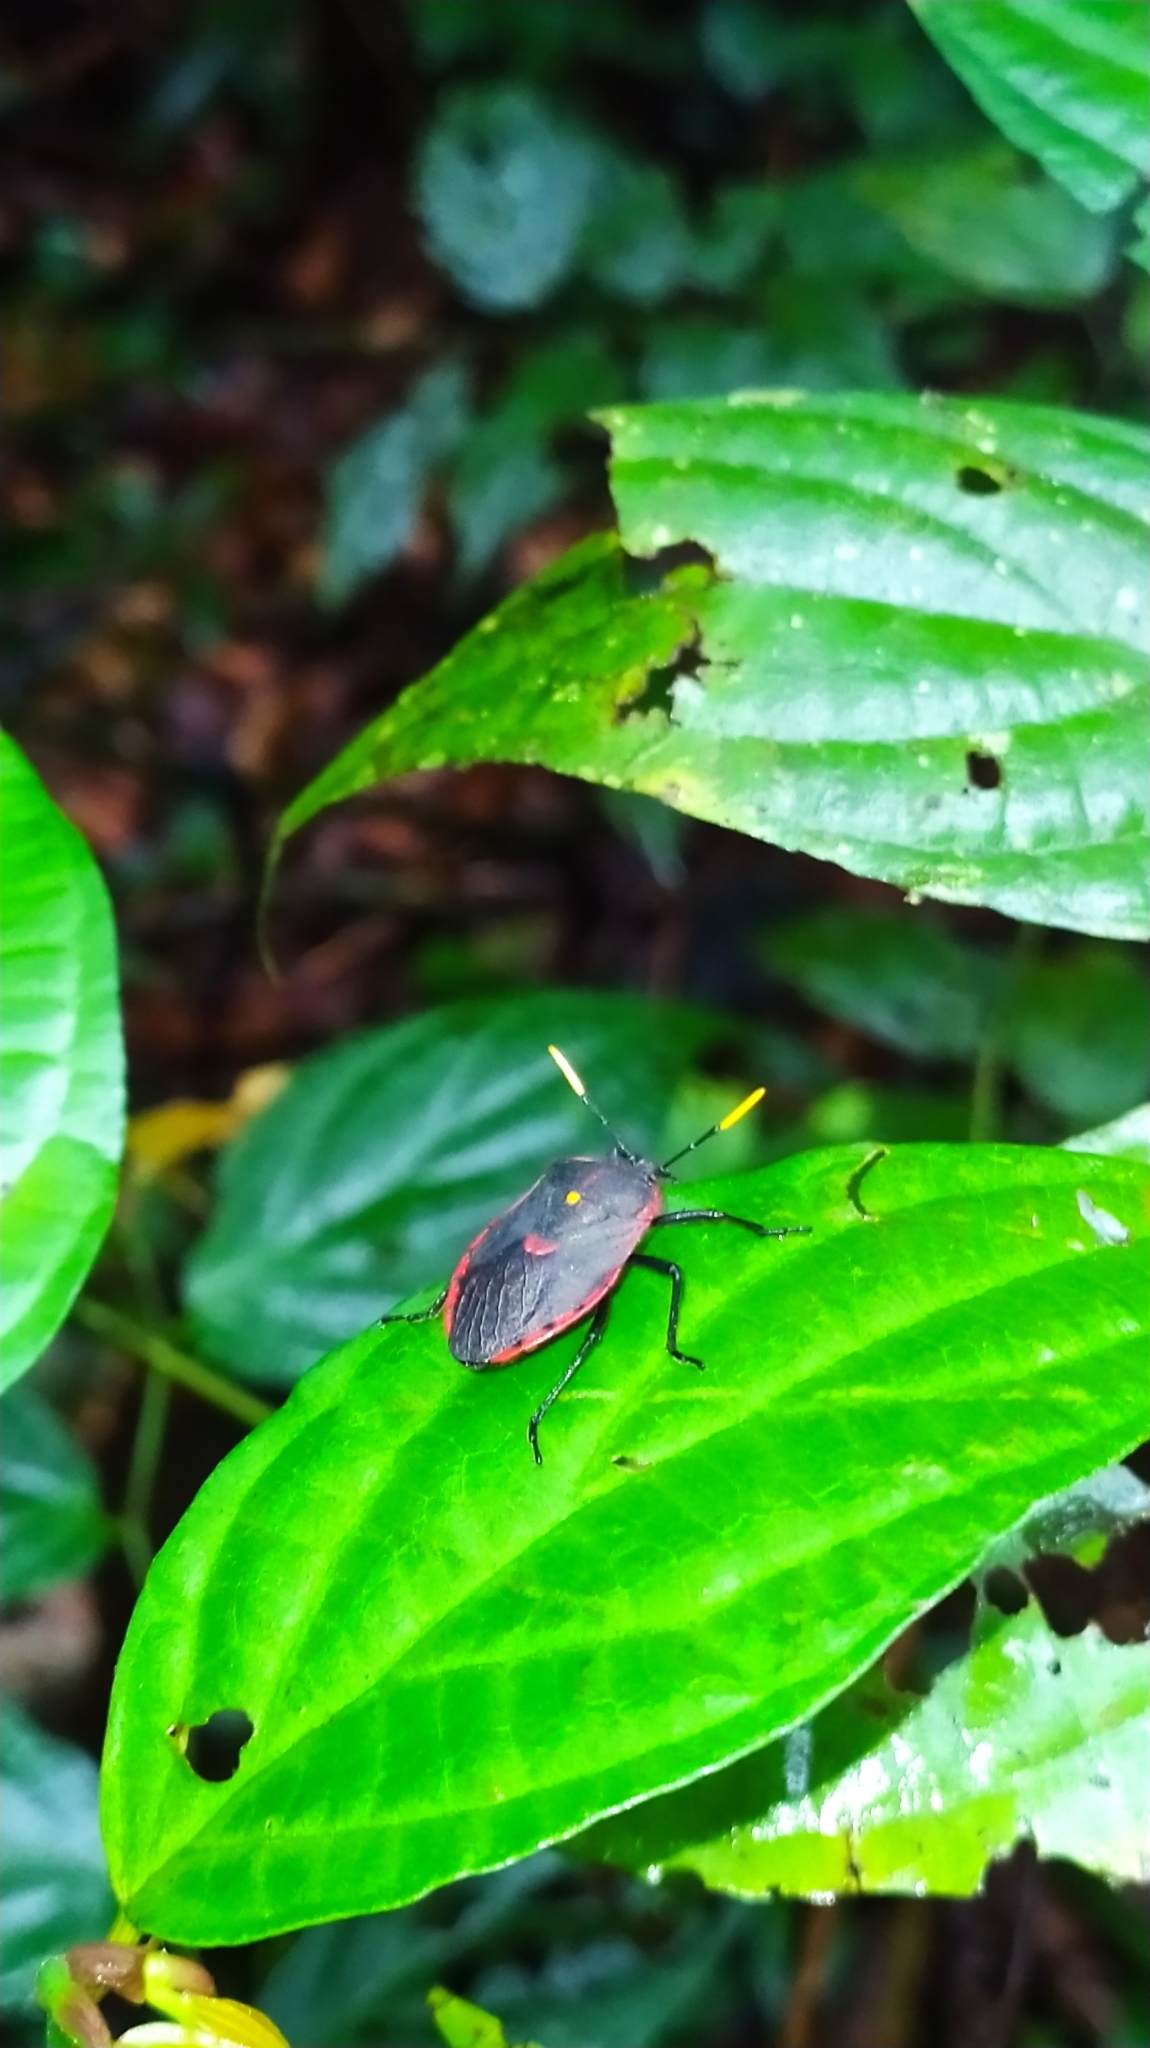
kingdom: Animalia
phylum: Arthropoda
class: Insecta
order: Hemiptera
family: Dinidoridae
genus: Dinidor
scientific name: Dinidor mactans
